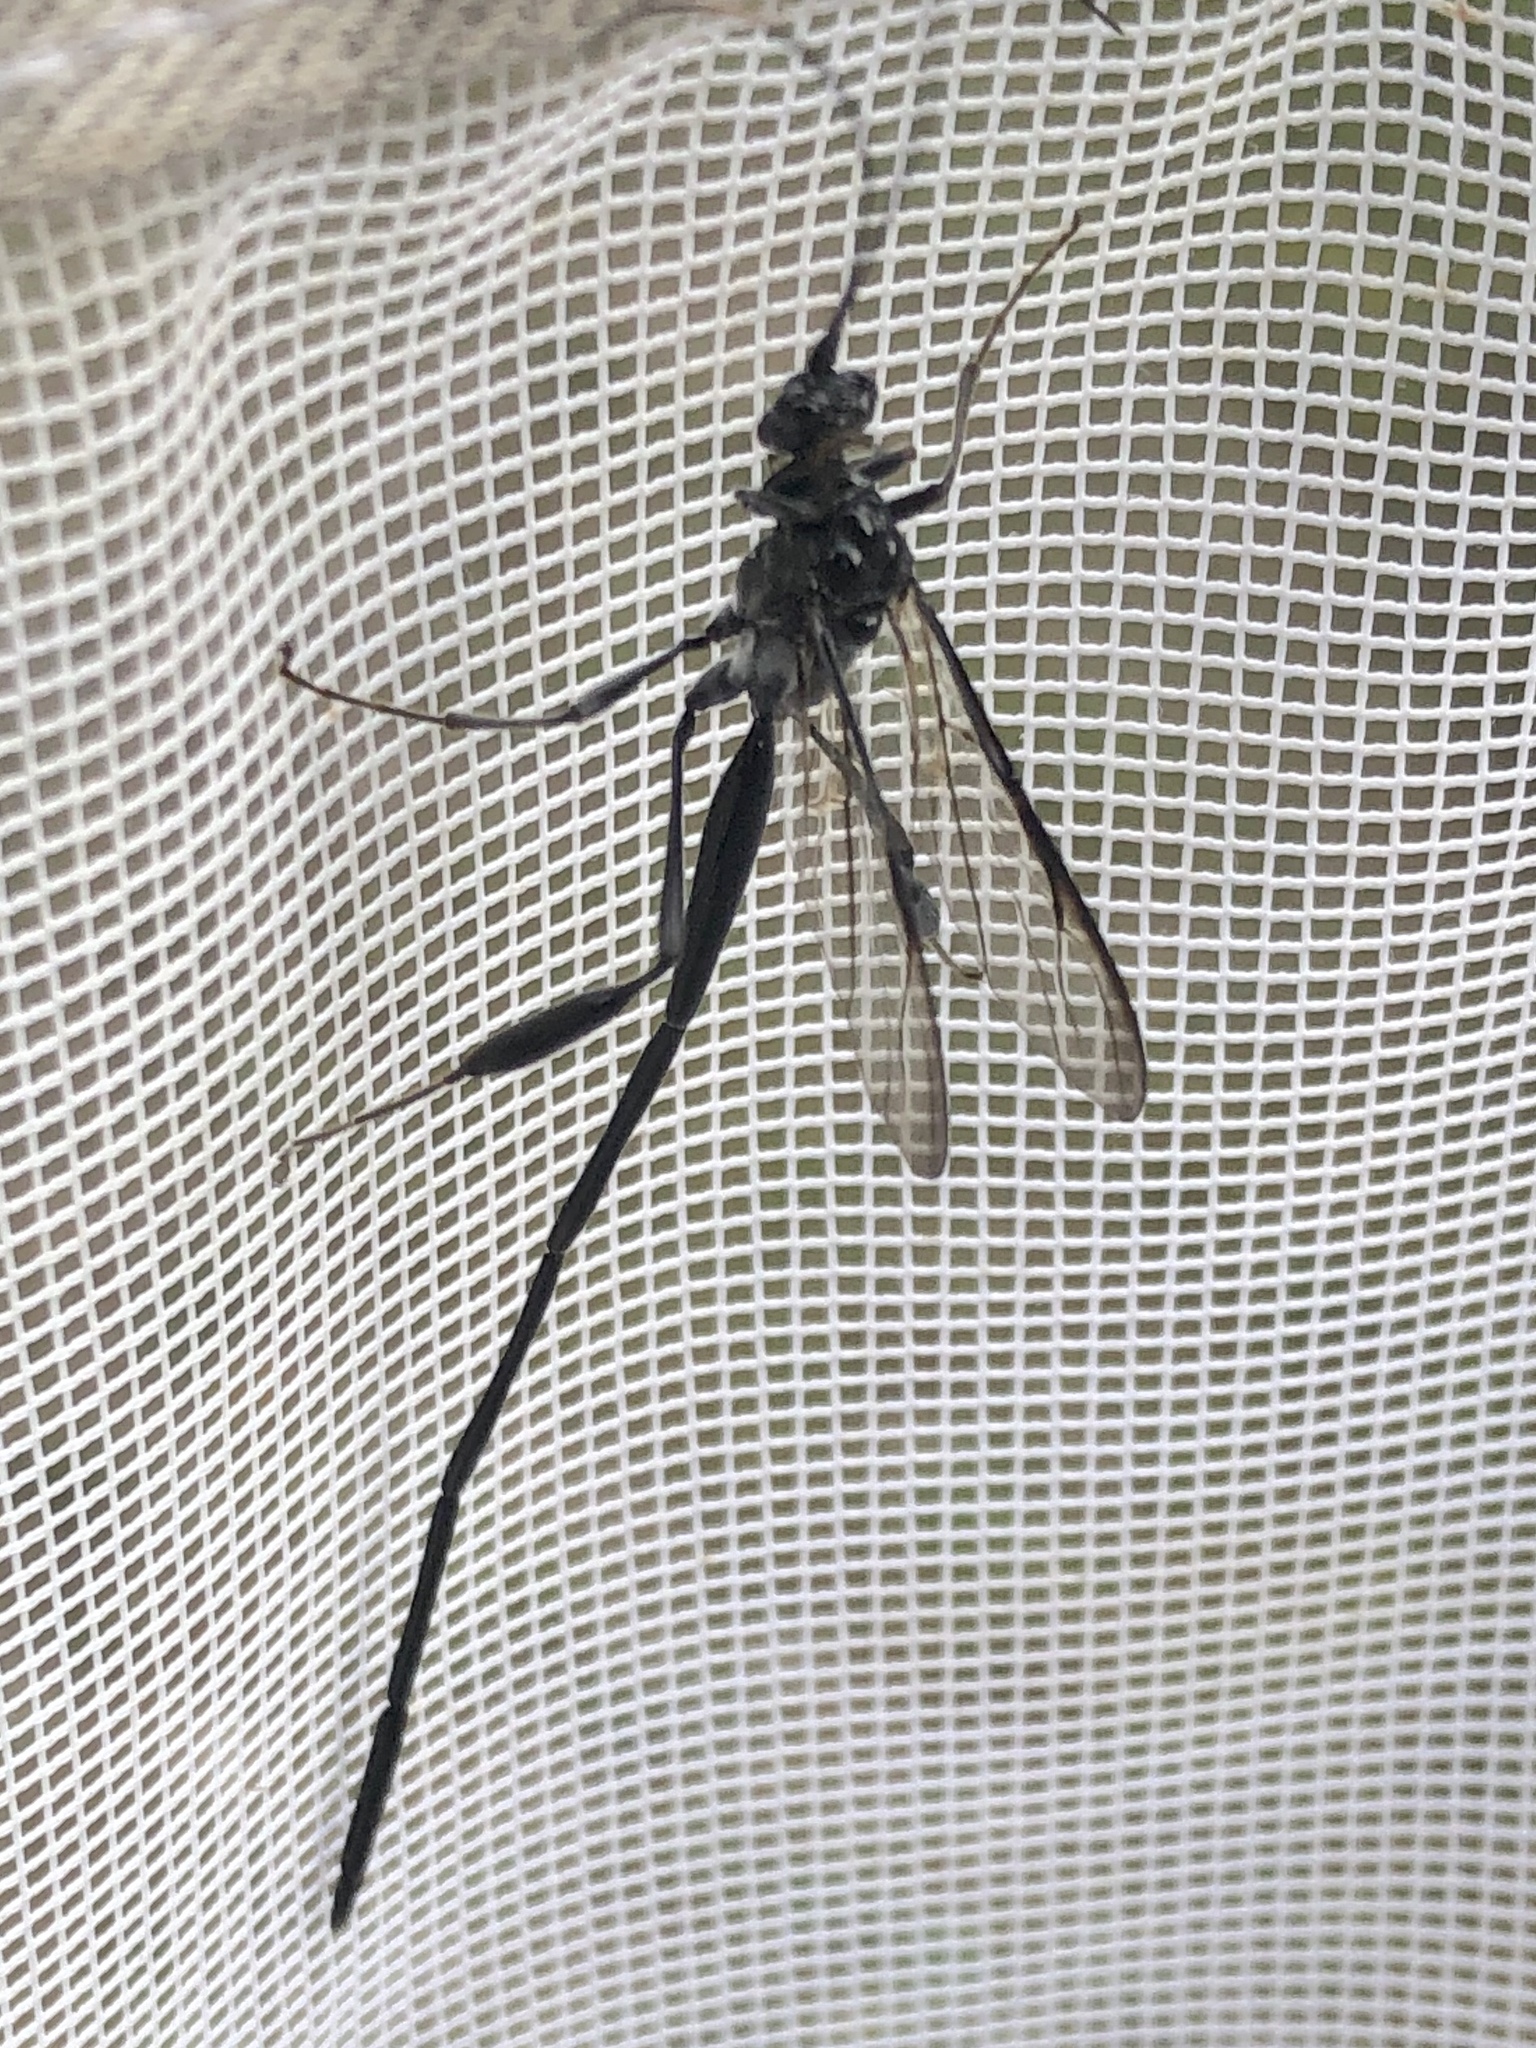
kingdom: Animalia
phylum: Arthropoda
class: Insecta
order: Hymenoptera
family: Pelecinidae
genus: Pelecinus
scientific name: Pelecinus polyturator
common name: American pelecinid wasp
